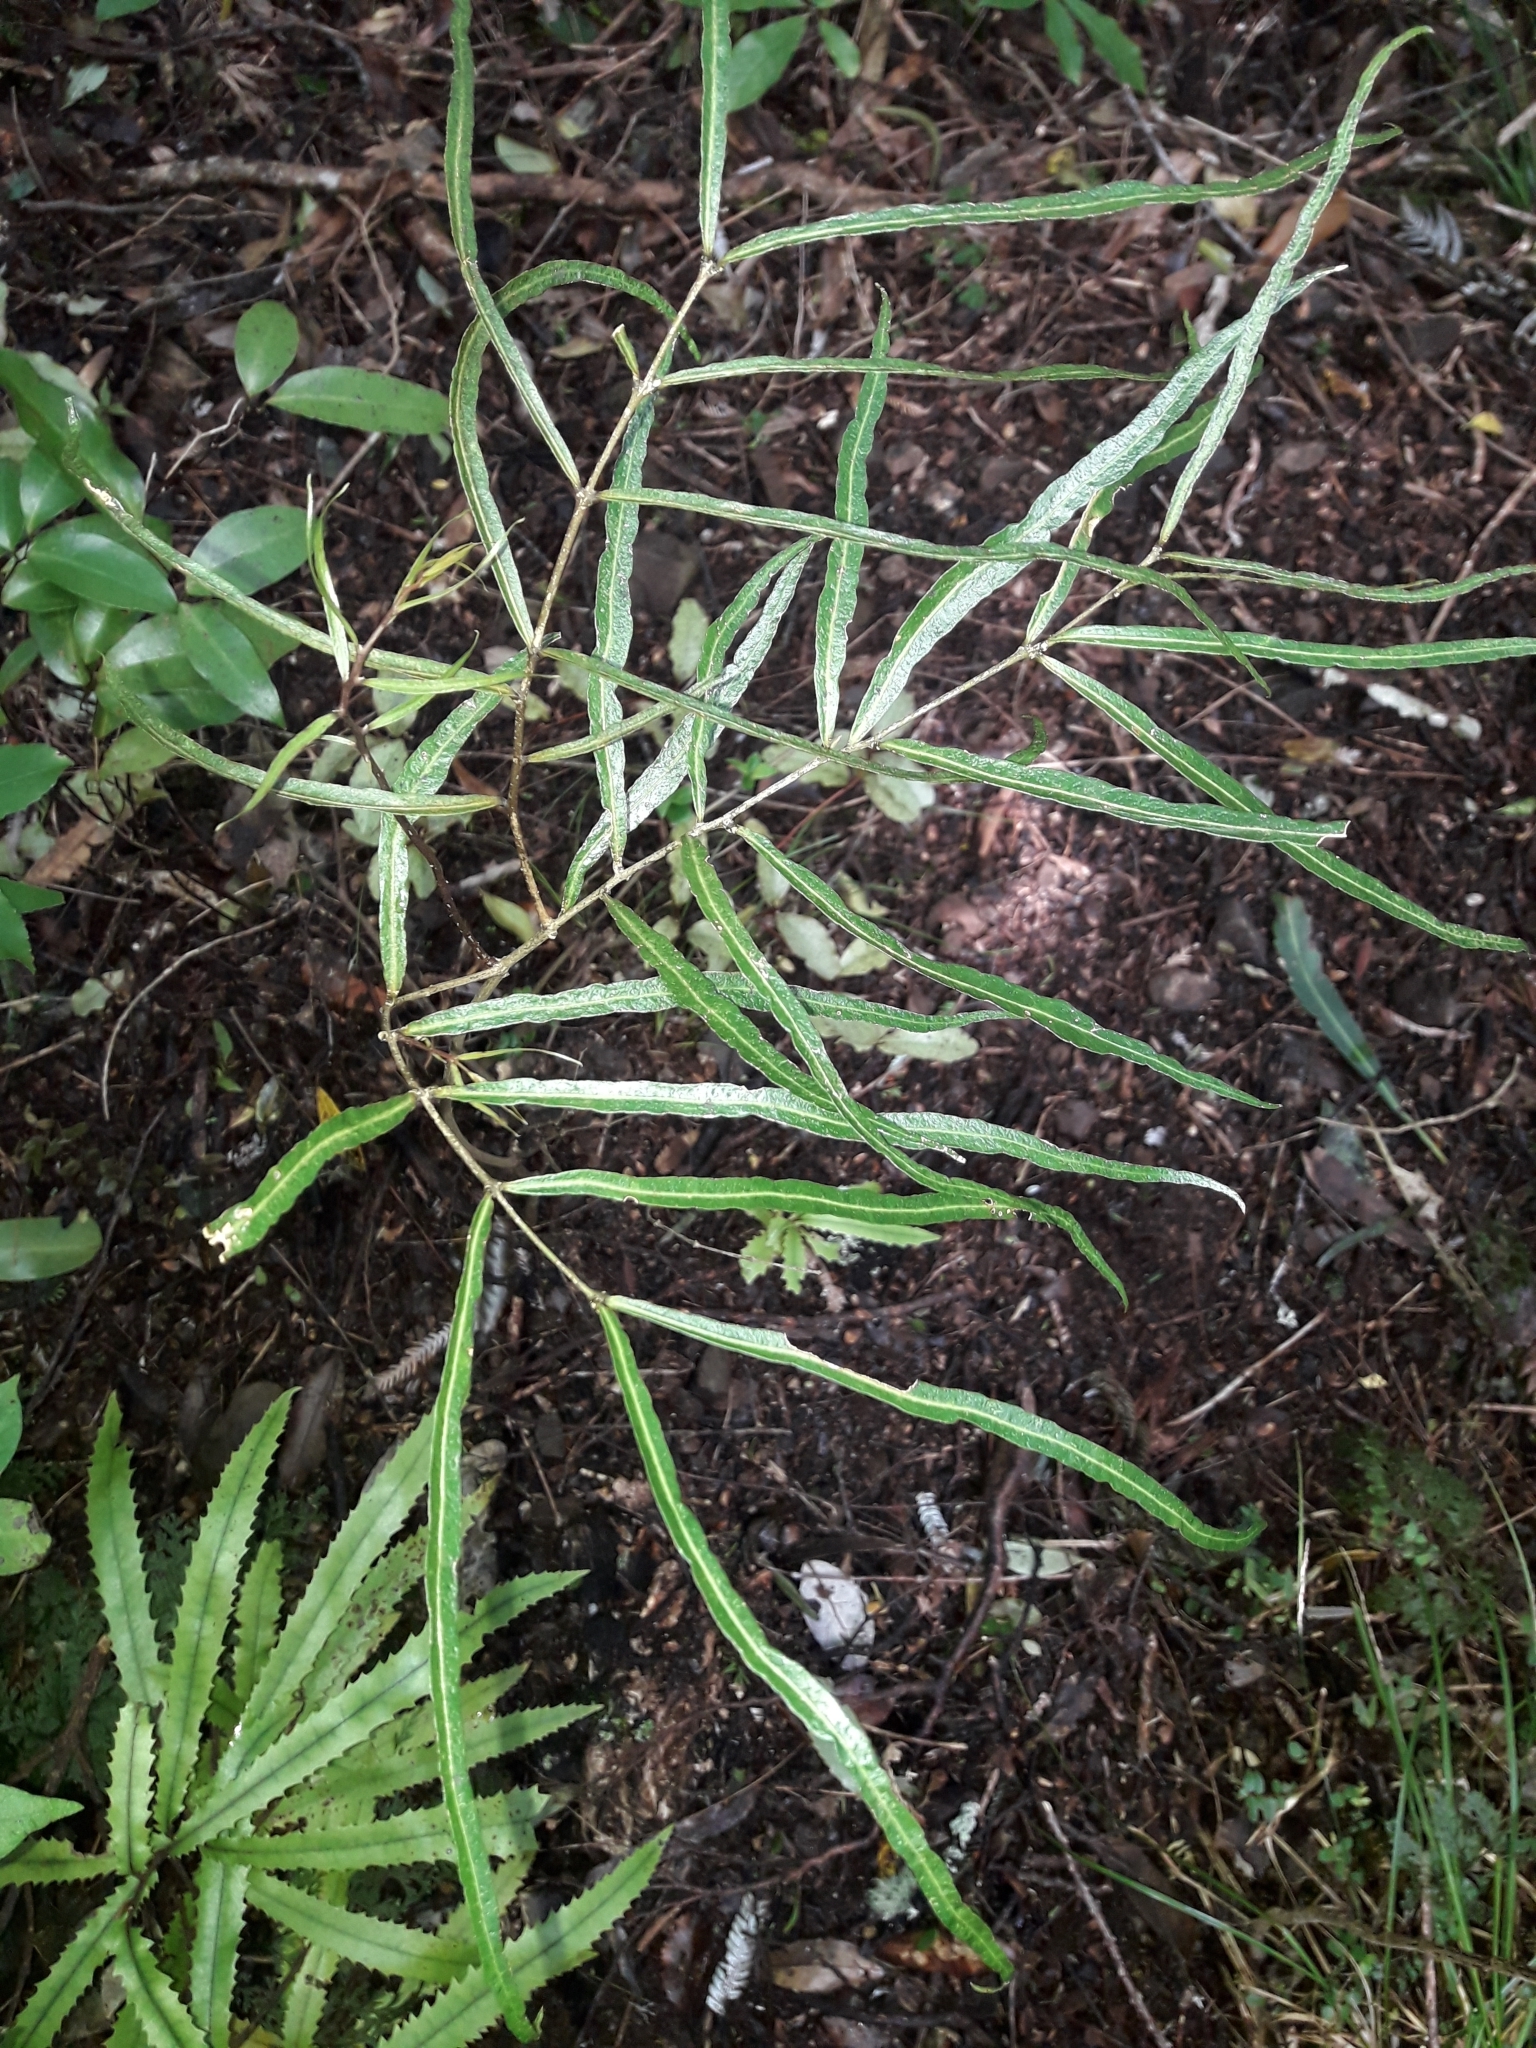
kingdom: Plantae
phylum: Tracheophyta
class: Magnoliopsida
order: Santalales
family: Nanodeaceae
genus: Mida
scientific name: Mida salicifolia
